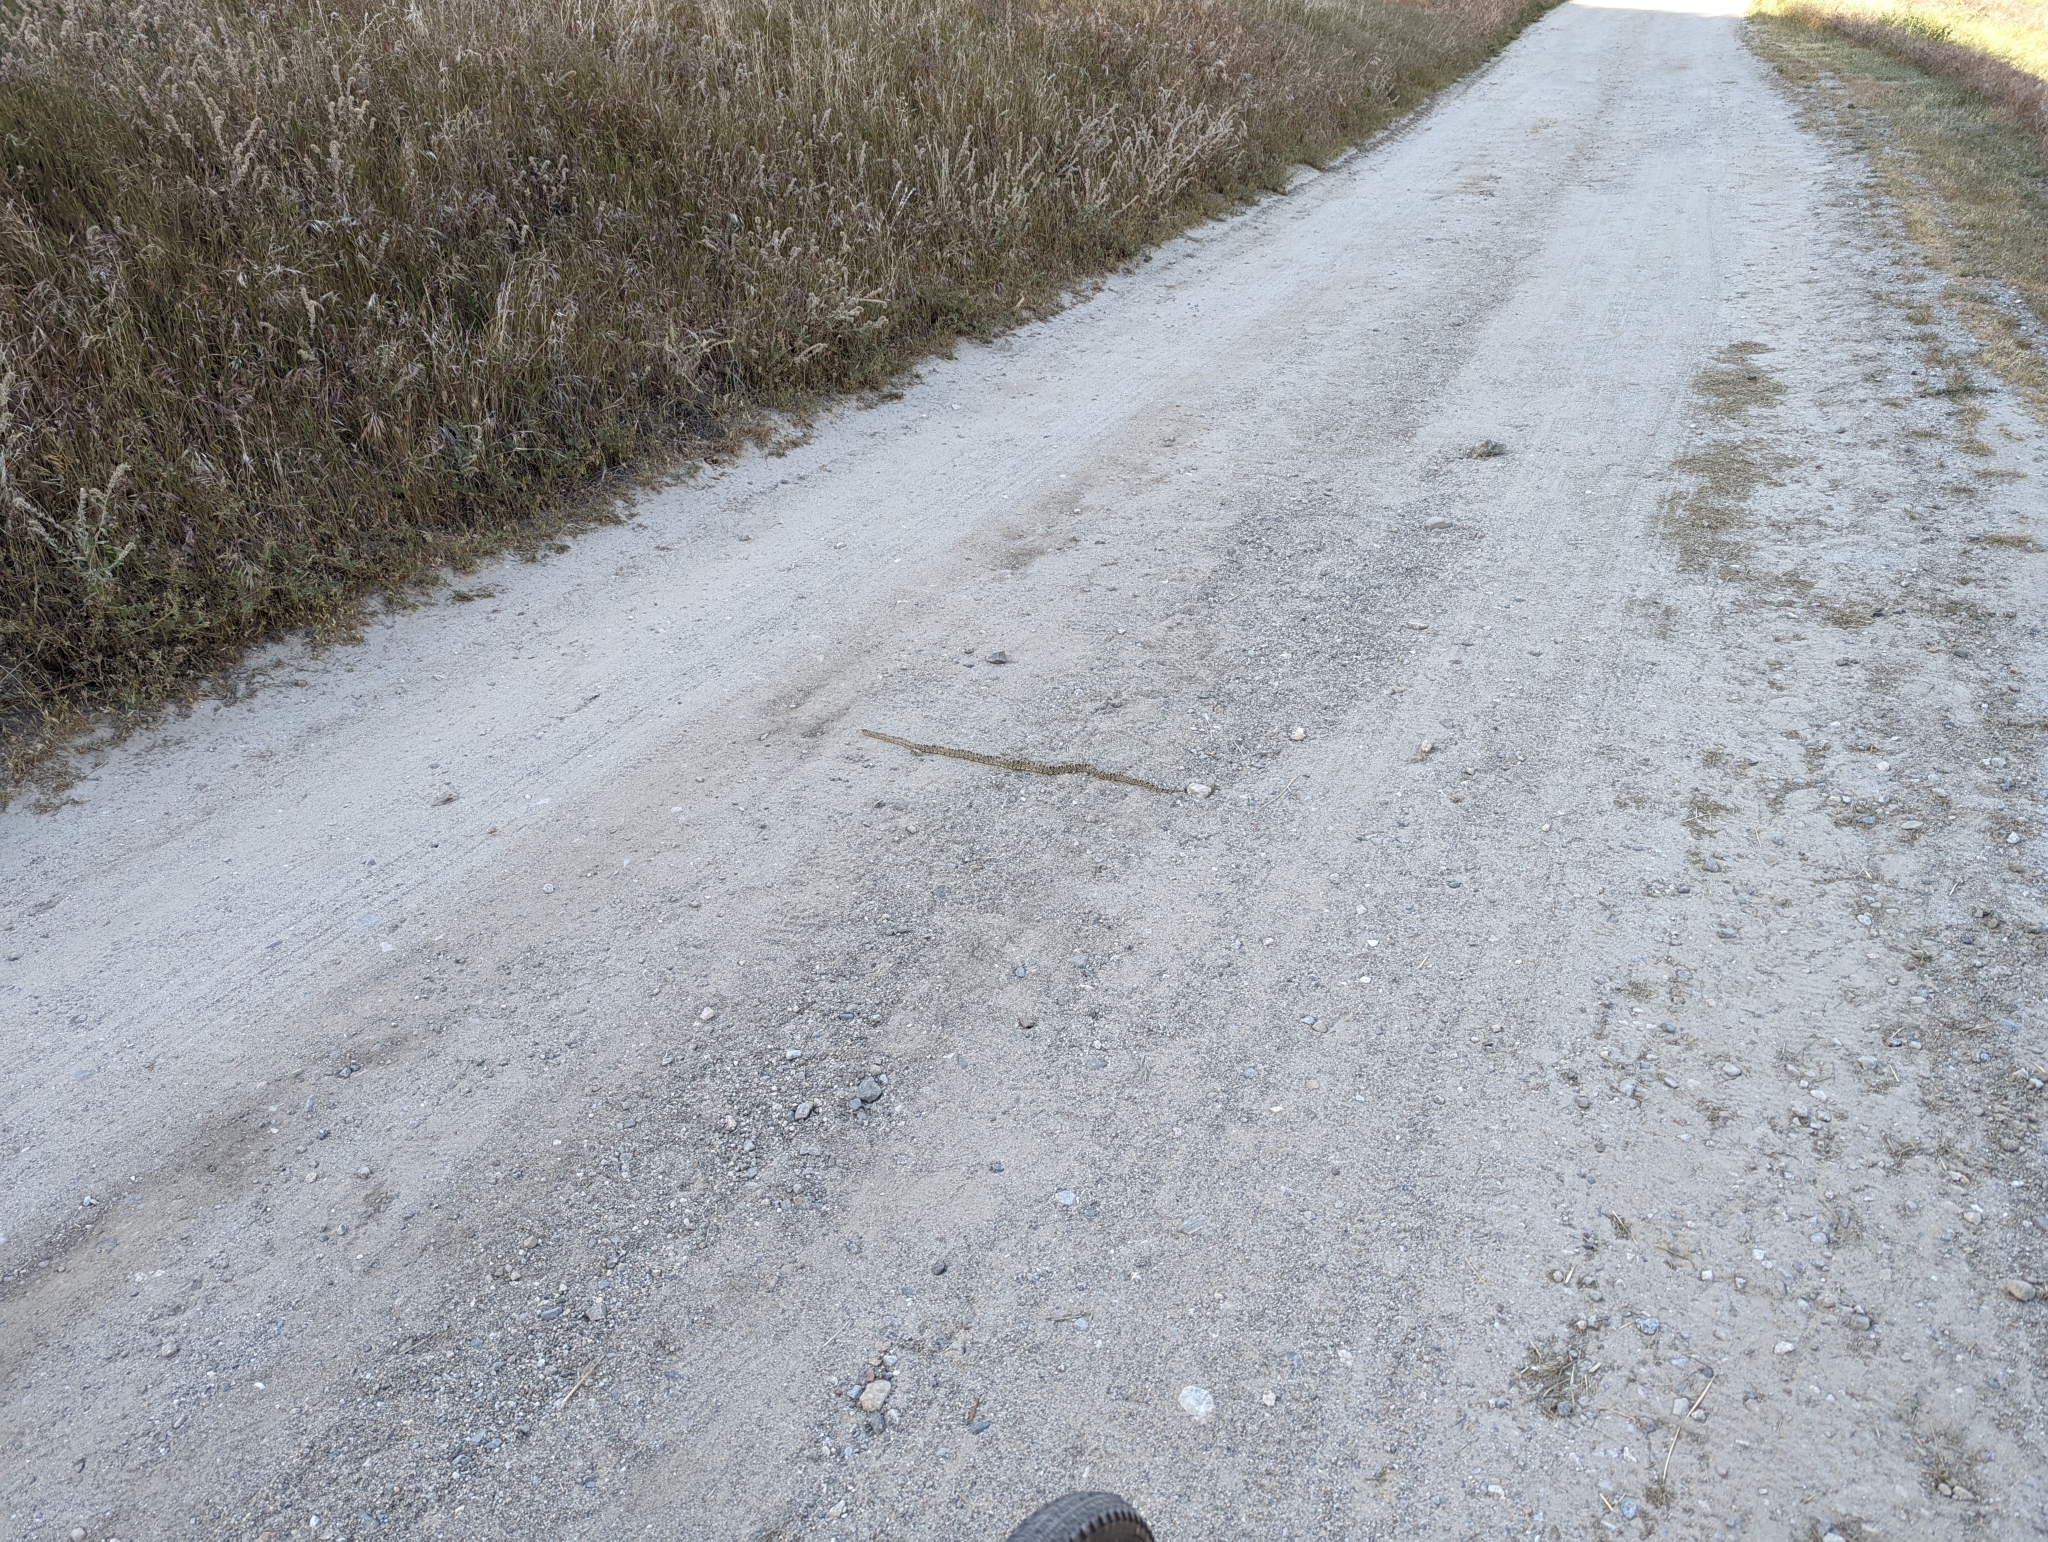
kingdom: Animalia
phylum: Chordata
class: Squamata
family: Colubridae
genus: Rhinocheilus
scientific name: Rhinocheilus lecontei
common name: Longnose snake
